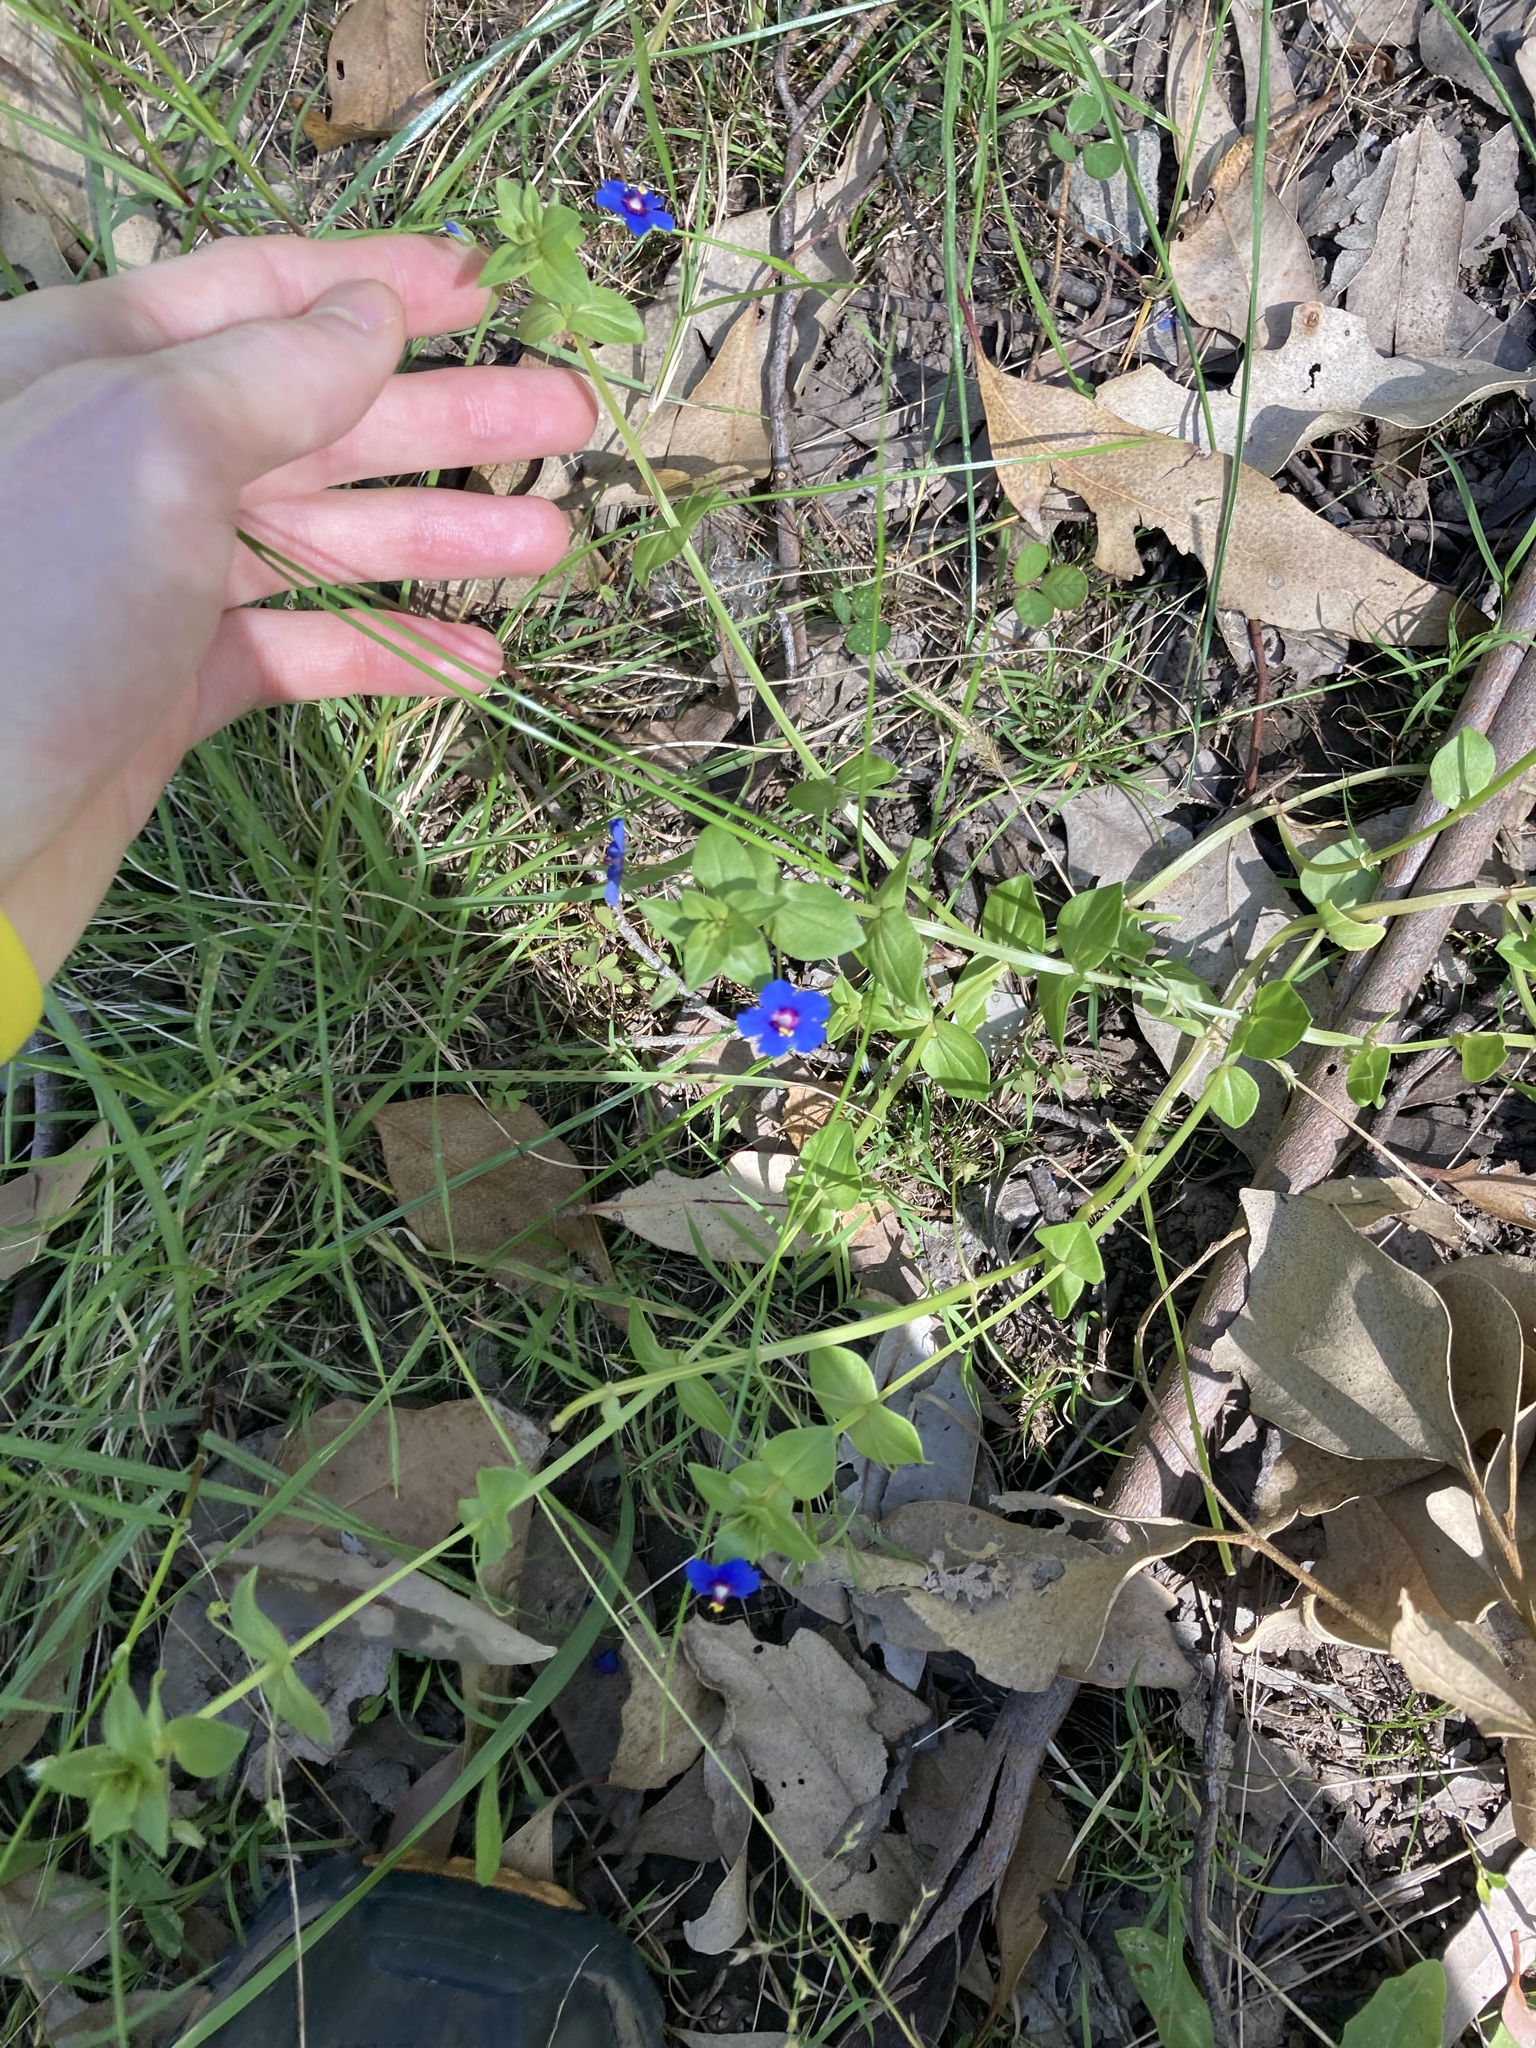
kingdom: Plantae
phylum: Tracheophyta
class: Magnoliopsida
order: Ericales
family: Primulaceae
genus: Lysimachia
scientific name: Lysimachia loeflingii
